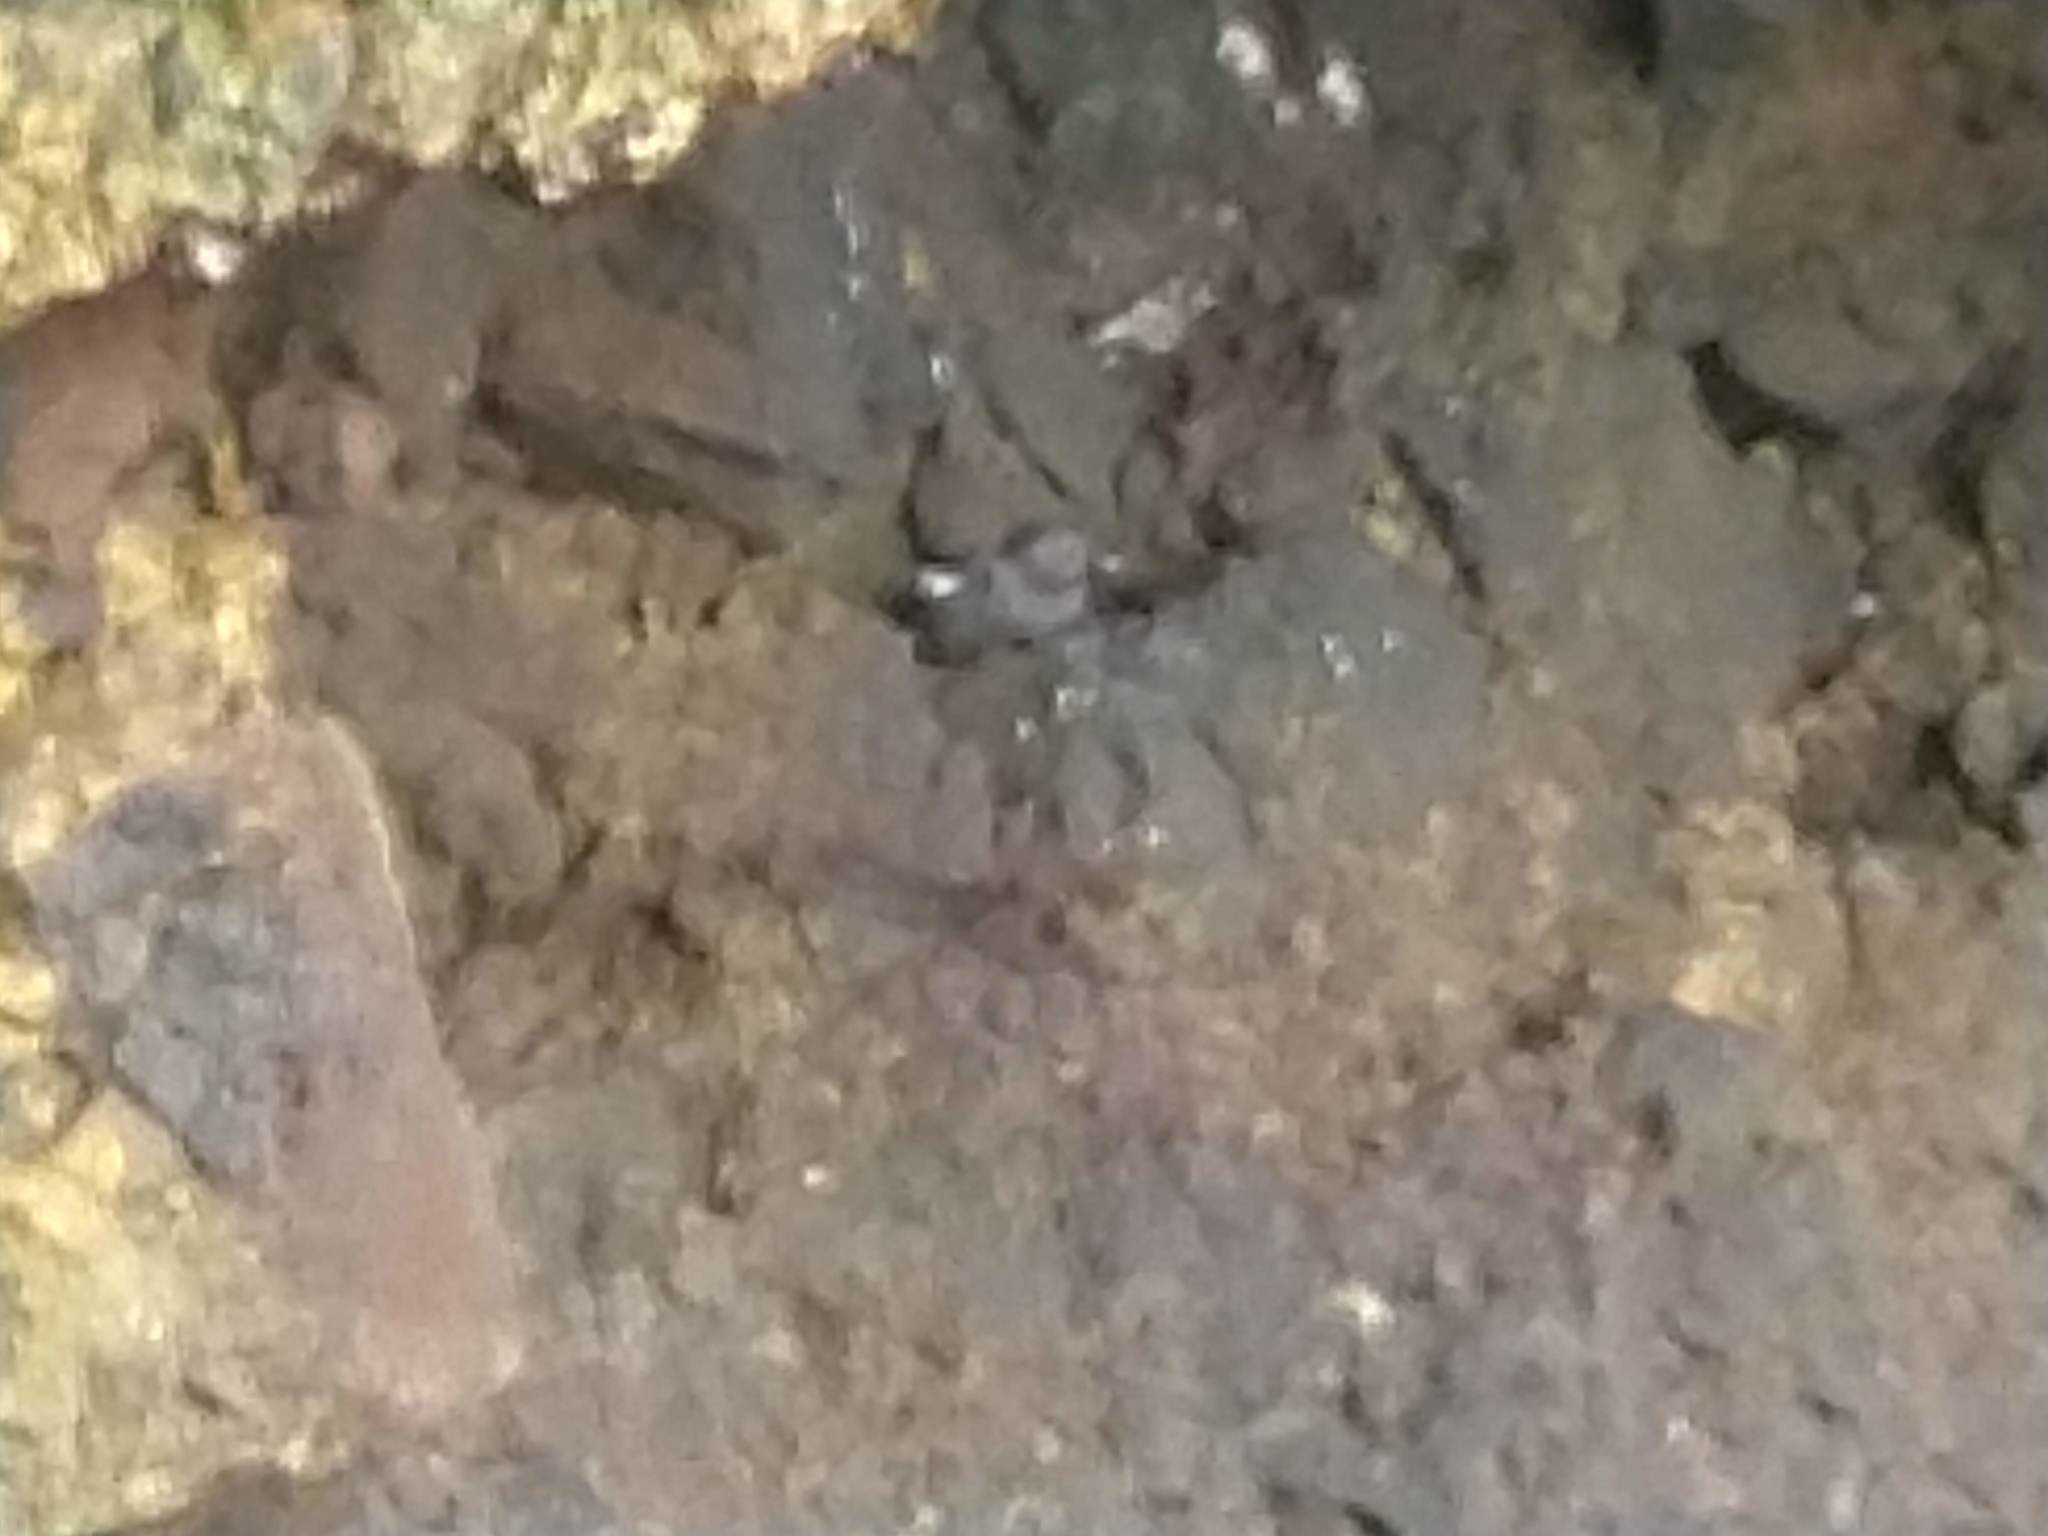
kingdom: Animalia
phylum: Chordata
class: Aves
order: Charadriiformes
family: Alcidae
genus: Cepphus
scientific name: Cepphus columba
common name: Pigeon guillemot
